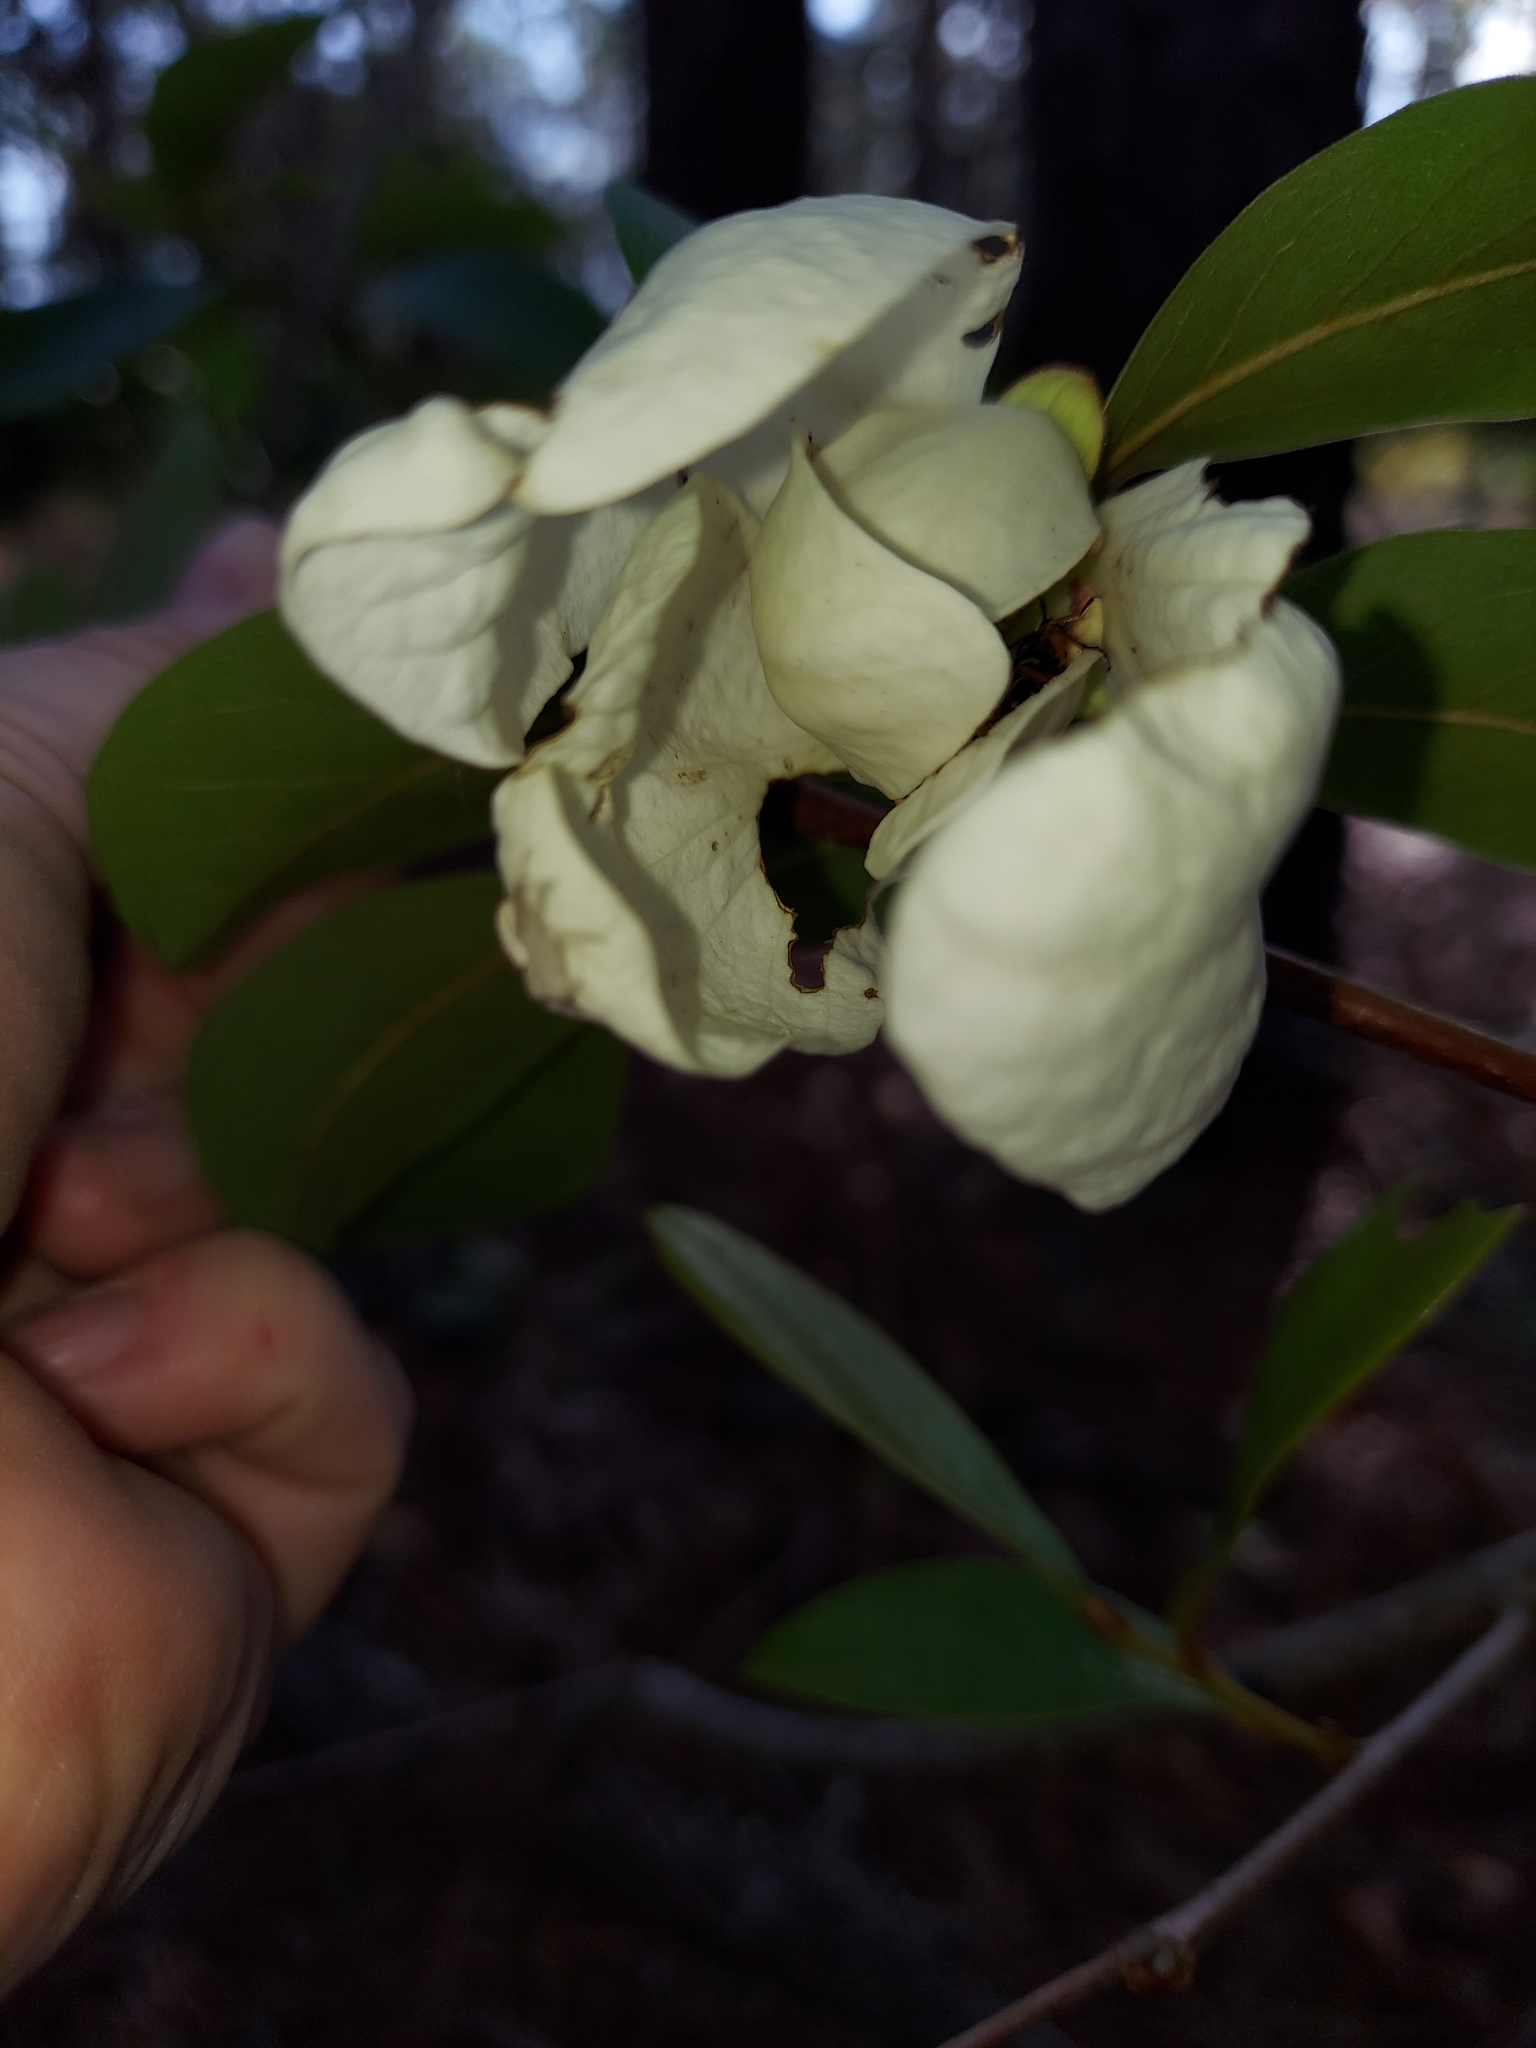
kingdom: Plantae
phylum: Tracheophyta
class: Magnoliopsida
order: Magnoliales
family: Annonaceae
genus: Asimina
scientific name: Asimina obovata
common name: Flag pawpaw
